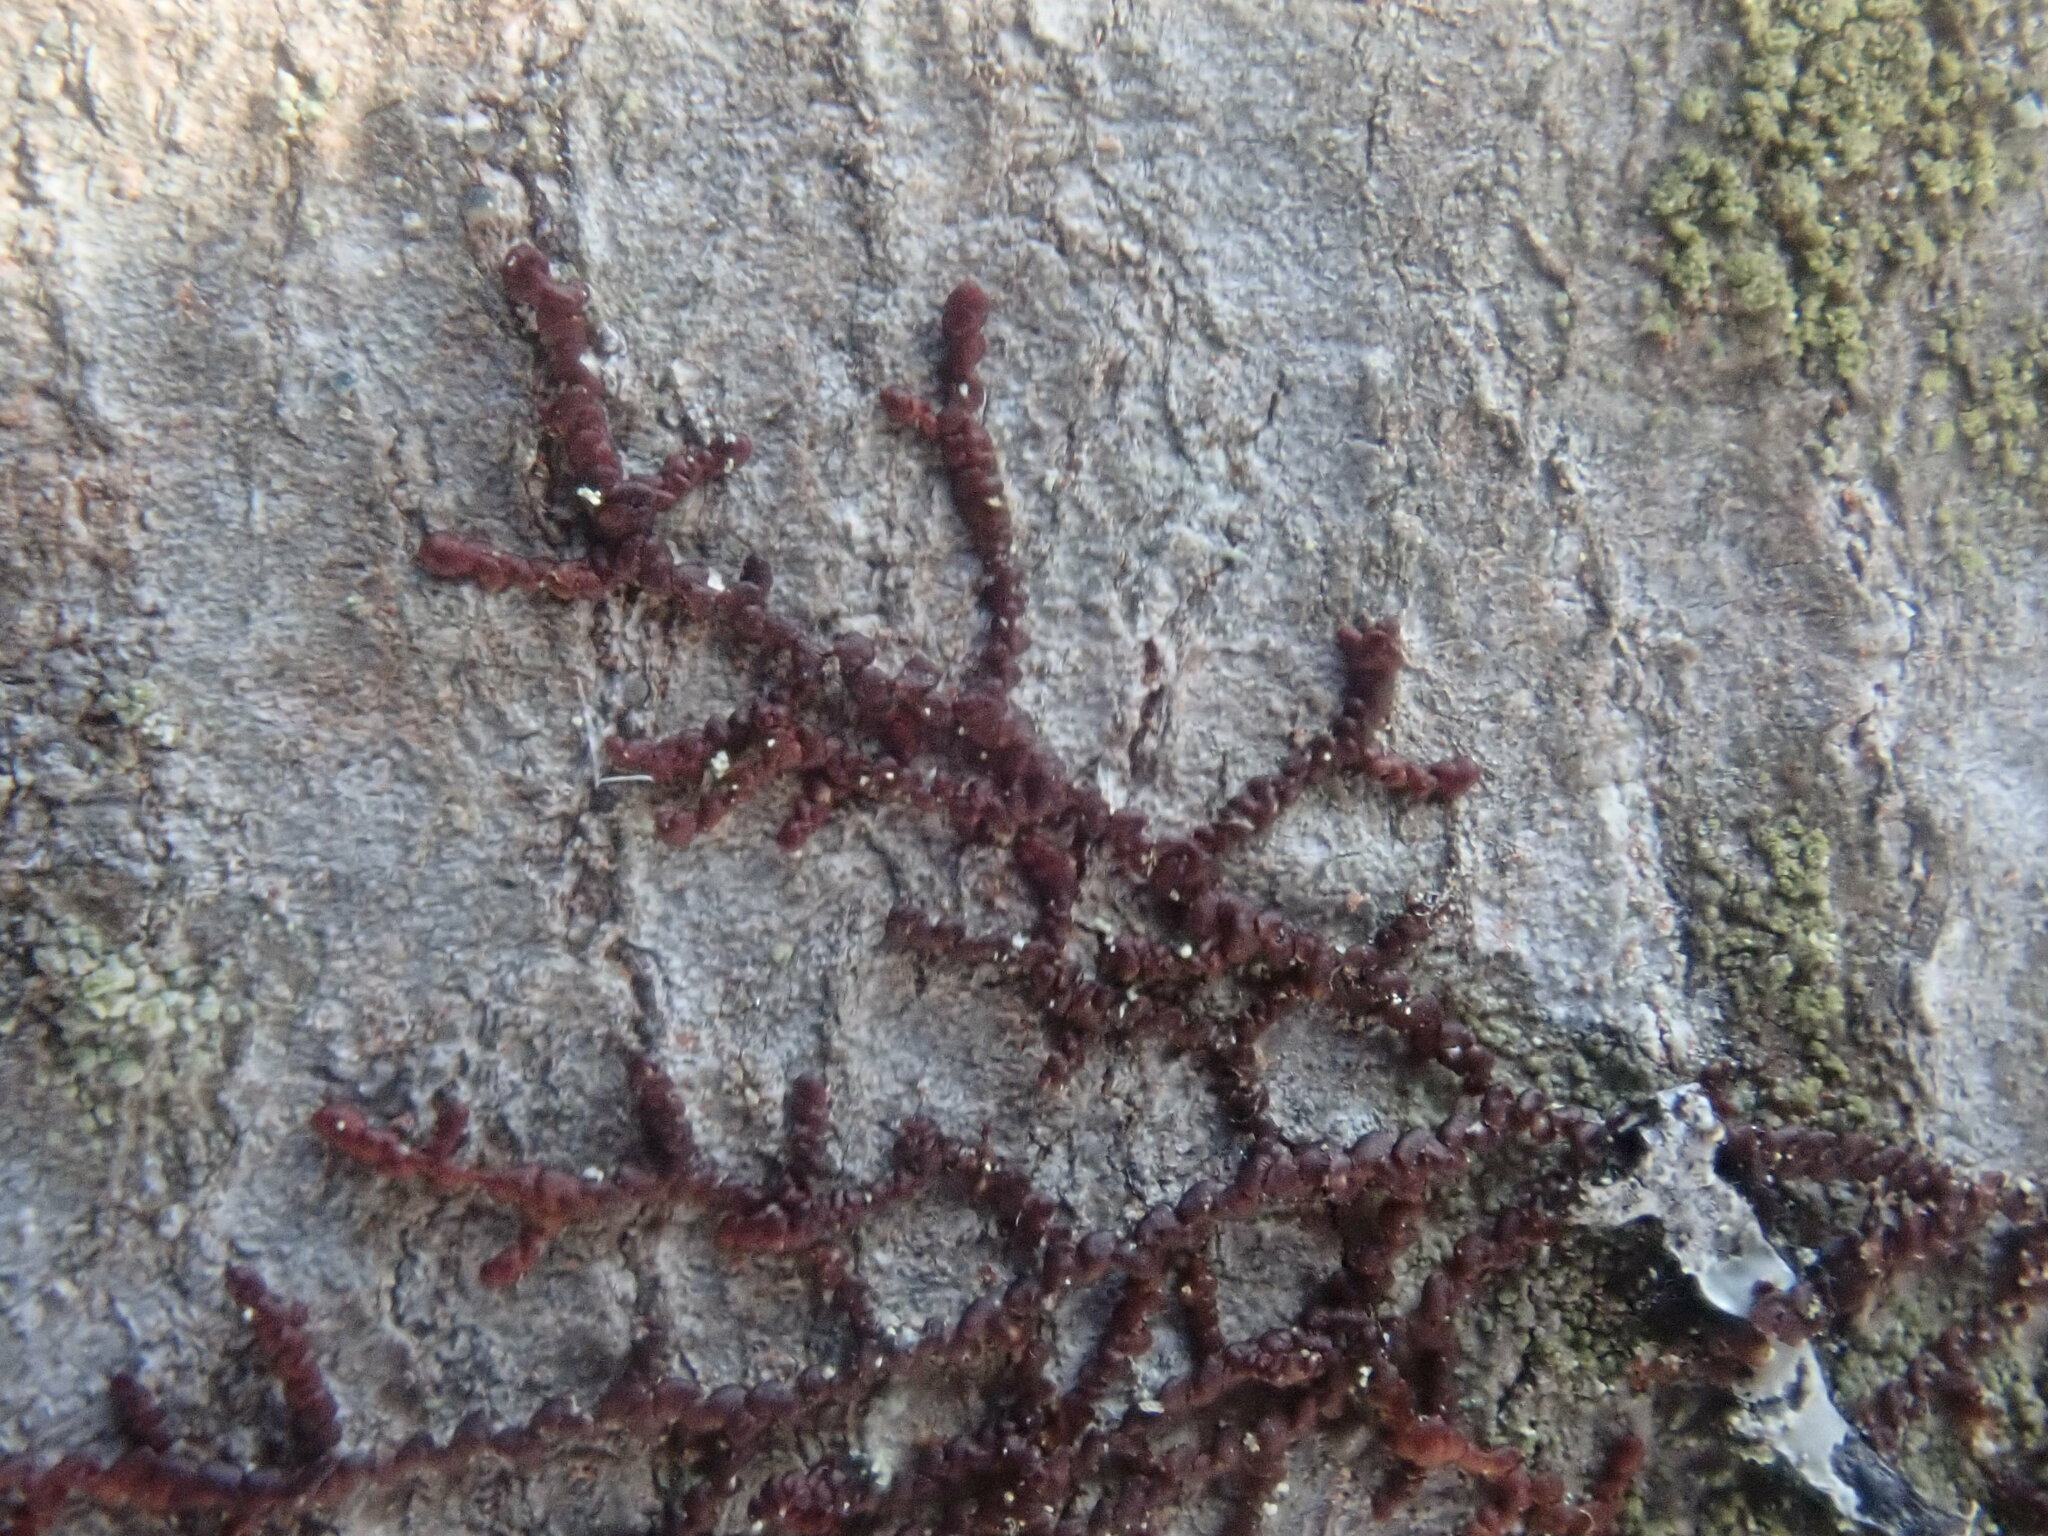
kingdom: Plantae
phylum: Marchantiophyta
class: Jungermanniopsida
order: Porellales
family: Frullaniaceae
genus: Frullania
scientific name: Frullania
